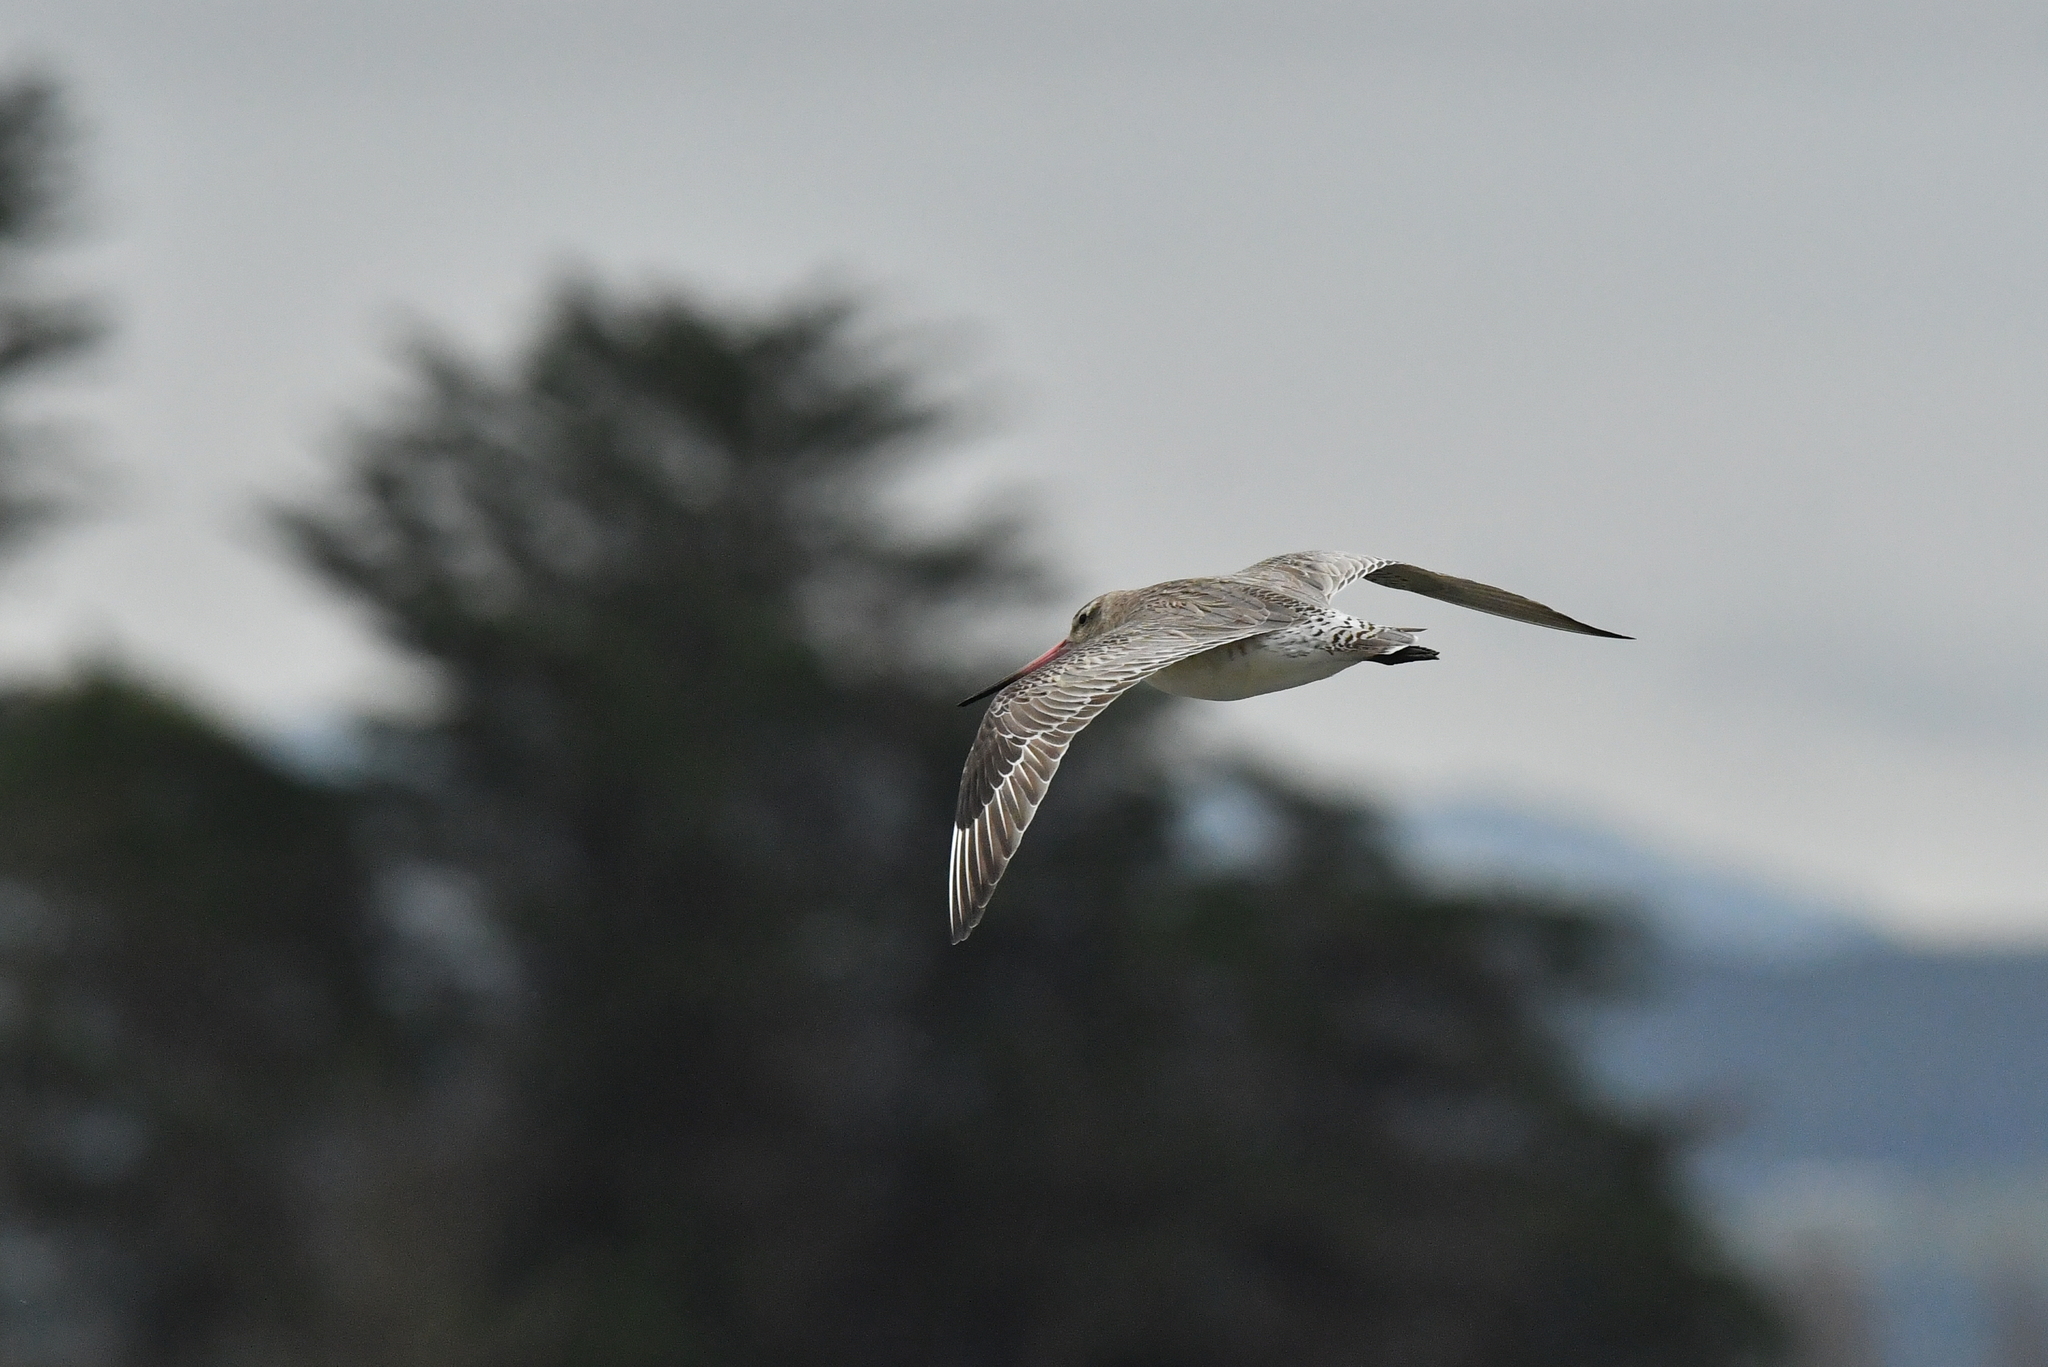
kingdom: Animalia
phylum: Chordata
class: Aves
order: Charadriiformes
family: Scolopacidae
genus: Limosa
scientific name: Limosa lapponica
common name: Bar-tailed godwit
